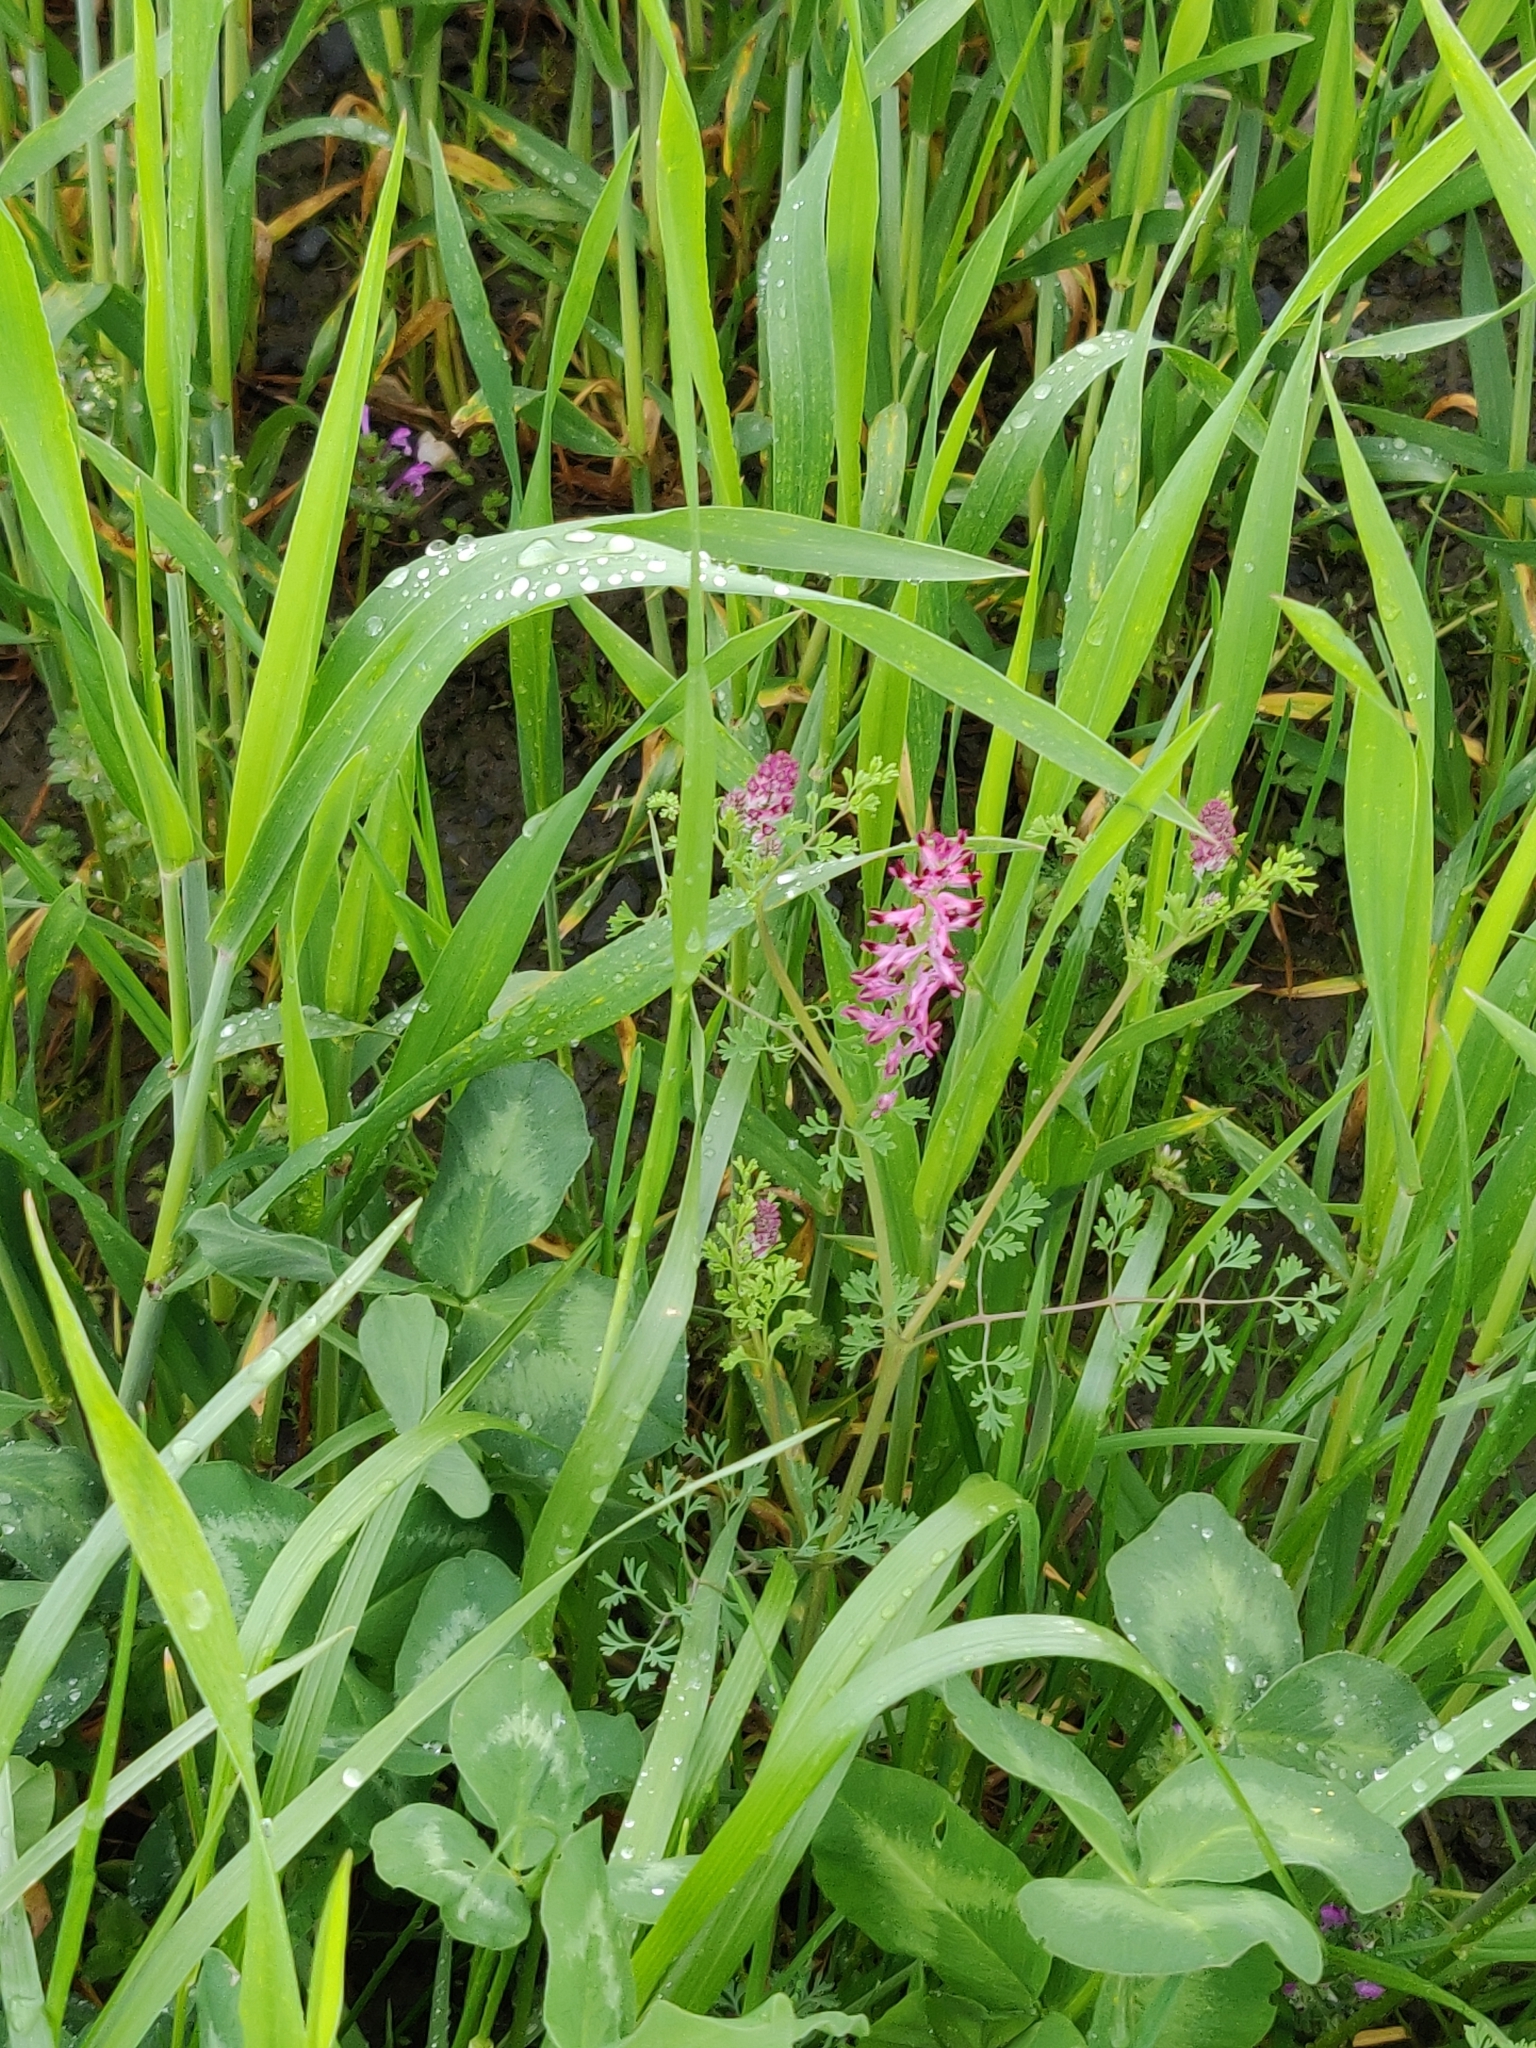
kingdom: Plantae
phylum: Tracheophyta
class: Magnoliopsida
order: Ranunculales
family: Papaveraceae
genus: Fumaria
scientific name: Fumaria officinalis
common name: Common fumitory
